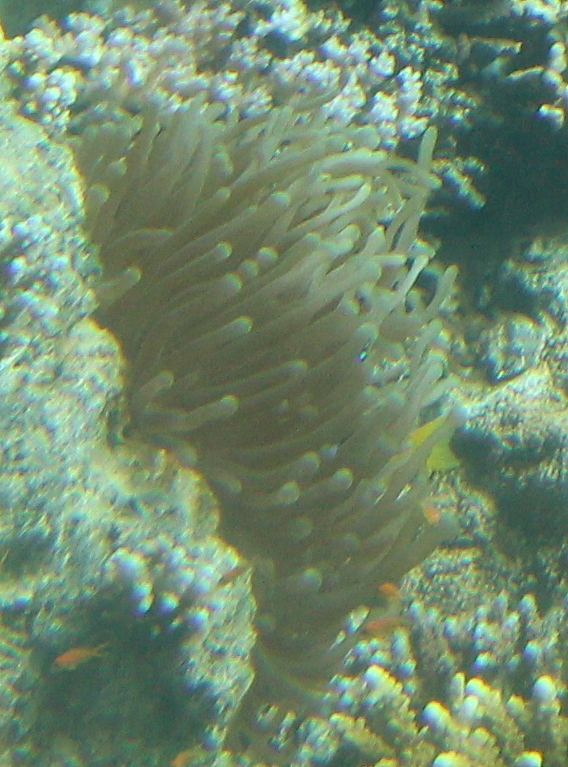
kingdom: Animalia
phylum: Cnidaria
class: Anthozoa
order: Actiniaria
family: Actiniidae
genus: Entacmaea
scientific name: Entacmaea quadricolor
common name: Bulb tentacle sea anemone
